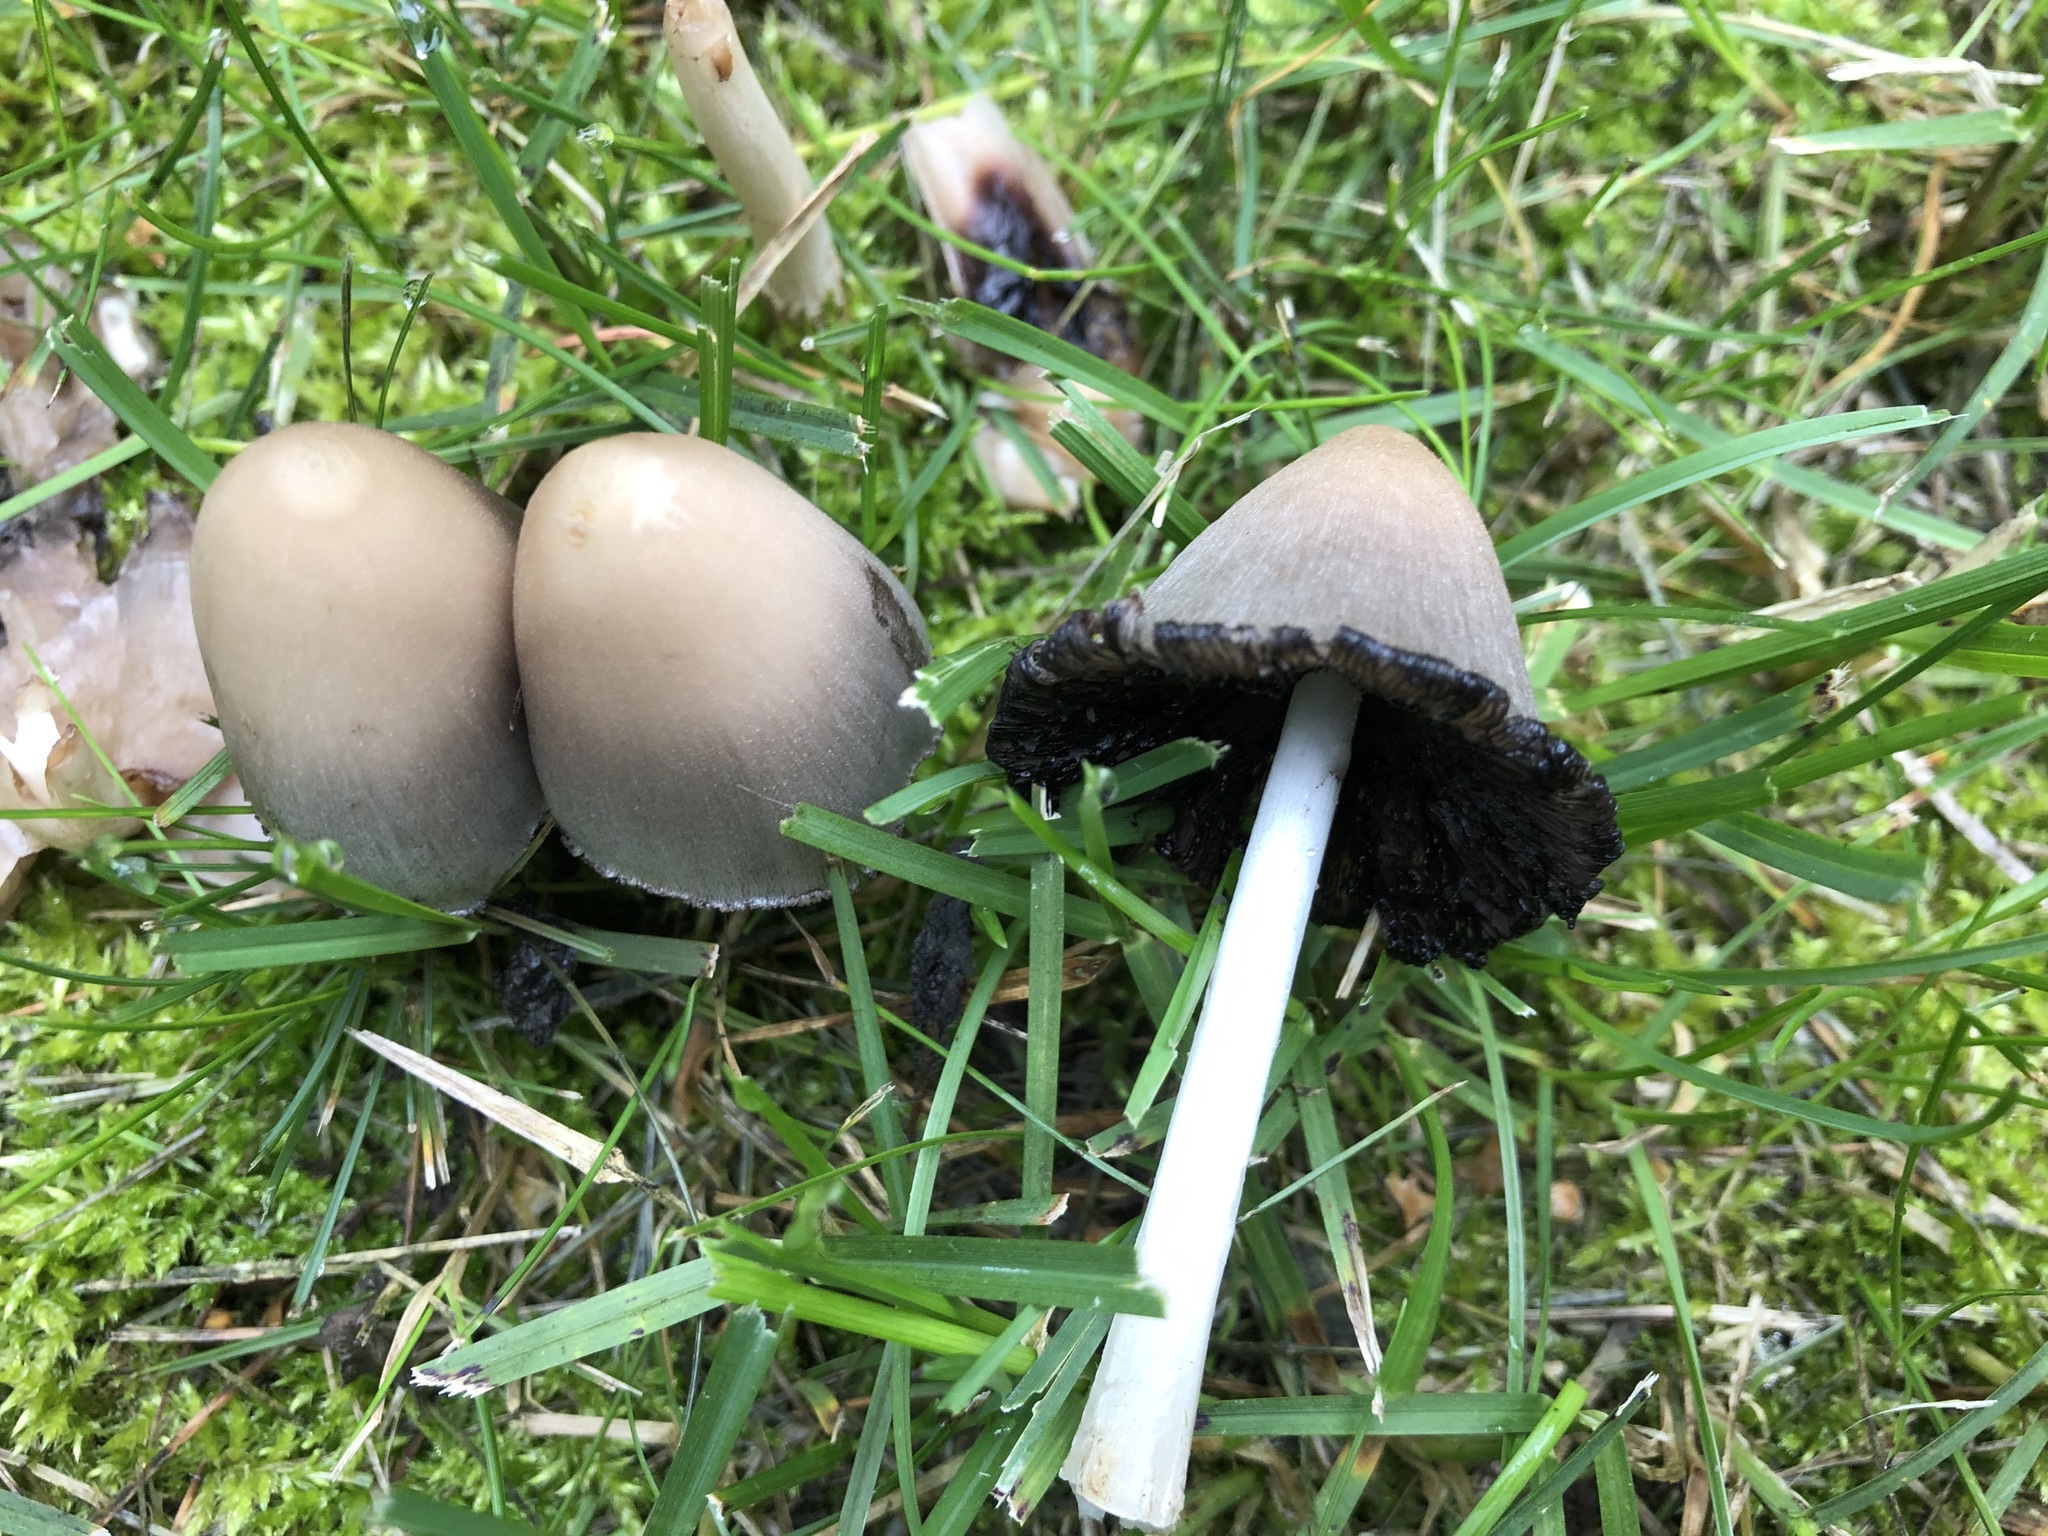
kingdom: Fungi
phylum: Basidiomycota
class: Agaricomycetes
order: Agaricales
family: Psathyrellaceae
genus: Coprinopsis
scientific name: Coprinopsis atramentaria
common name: Common ink-cap
